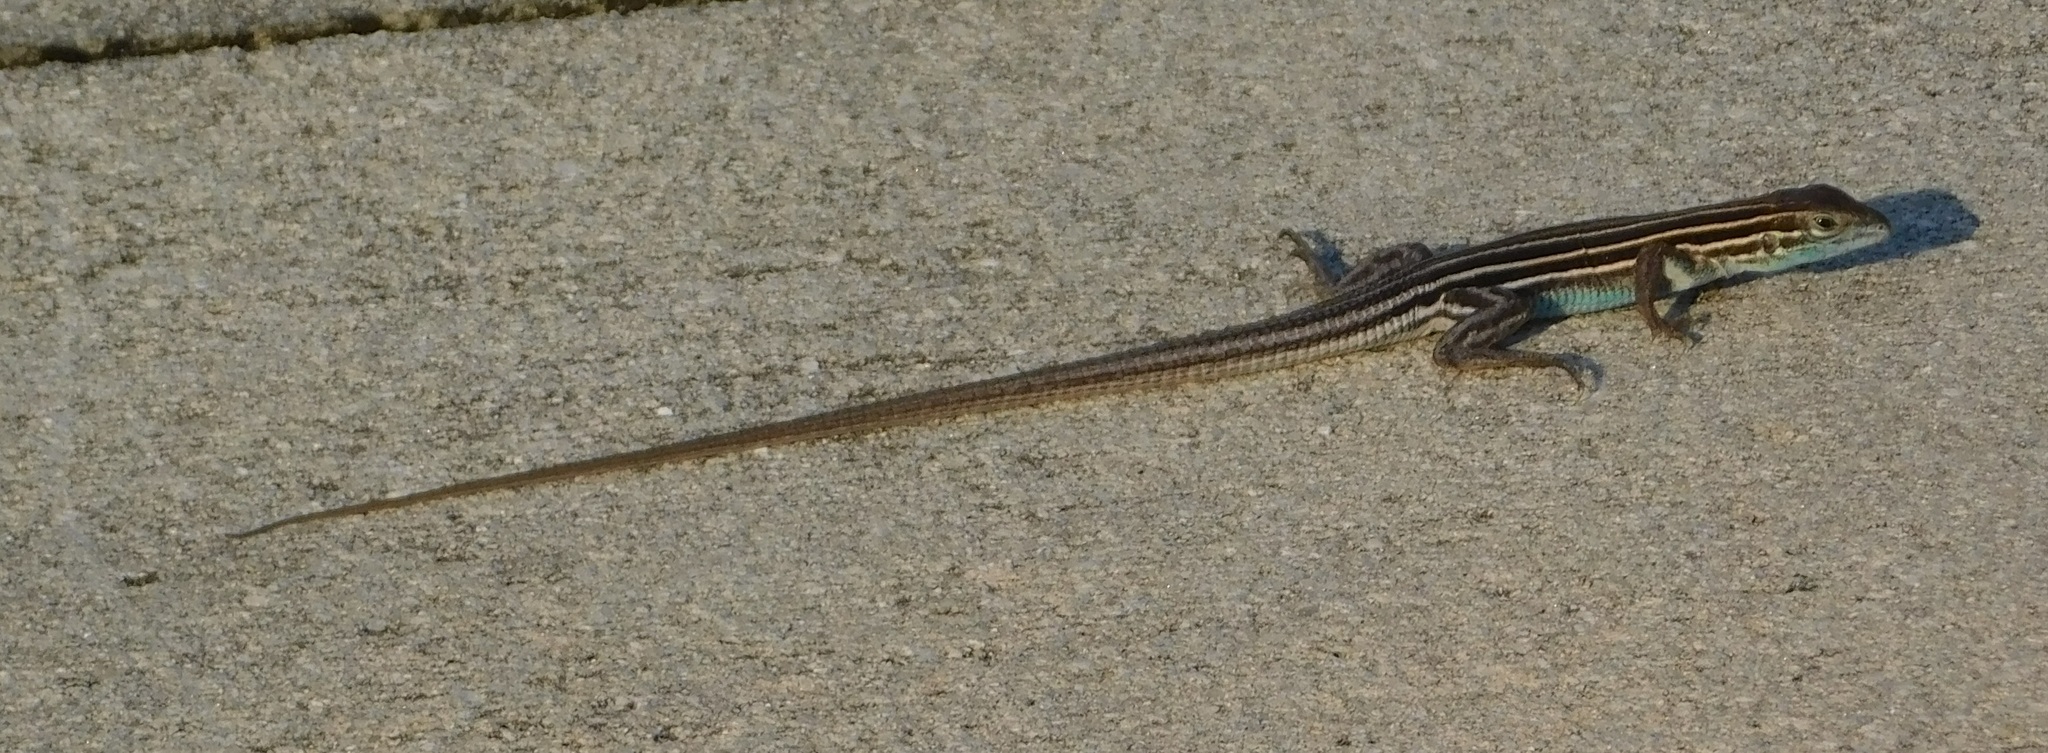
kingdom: Animalia
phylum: Chordata
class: Squamata
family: Teiidae
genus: Aspidoscelis
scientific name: Aspidoscelis sexlineatus
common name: Six-lined racerunner
